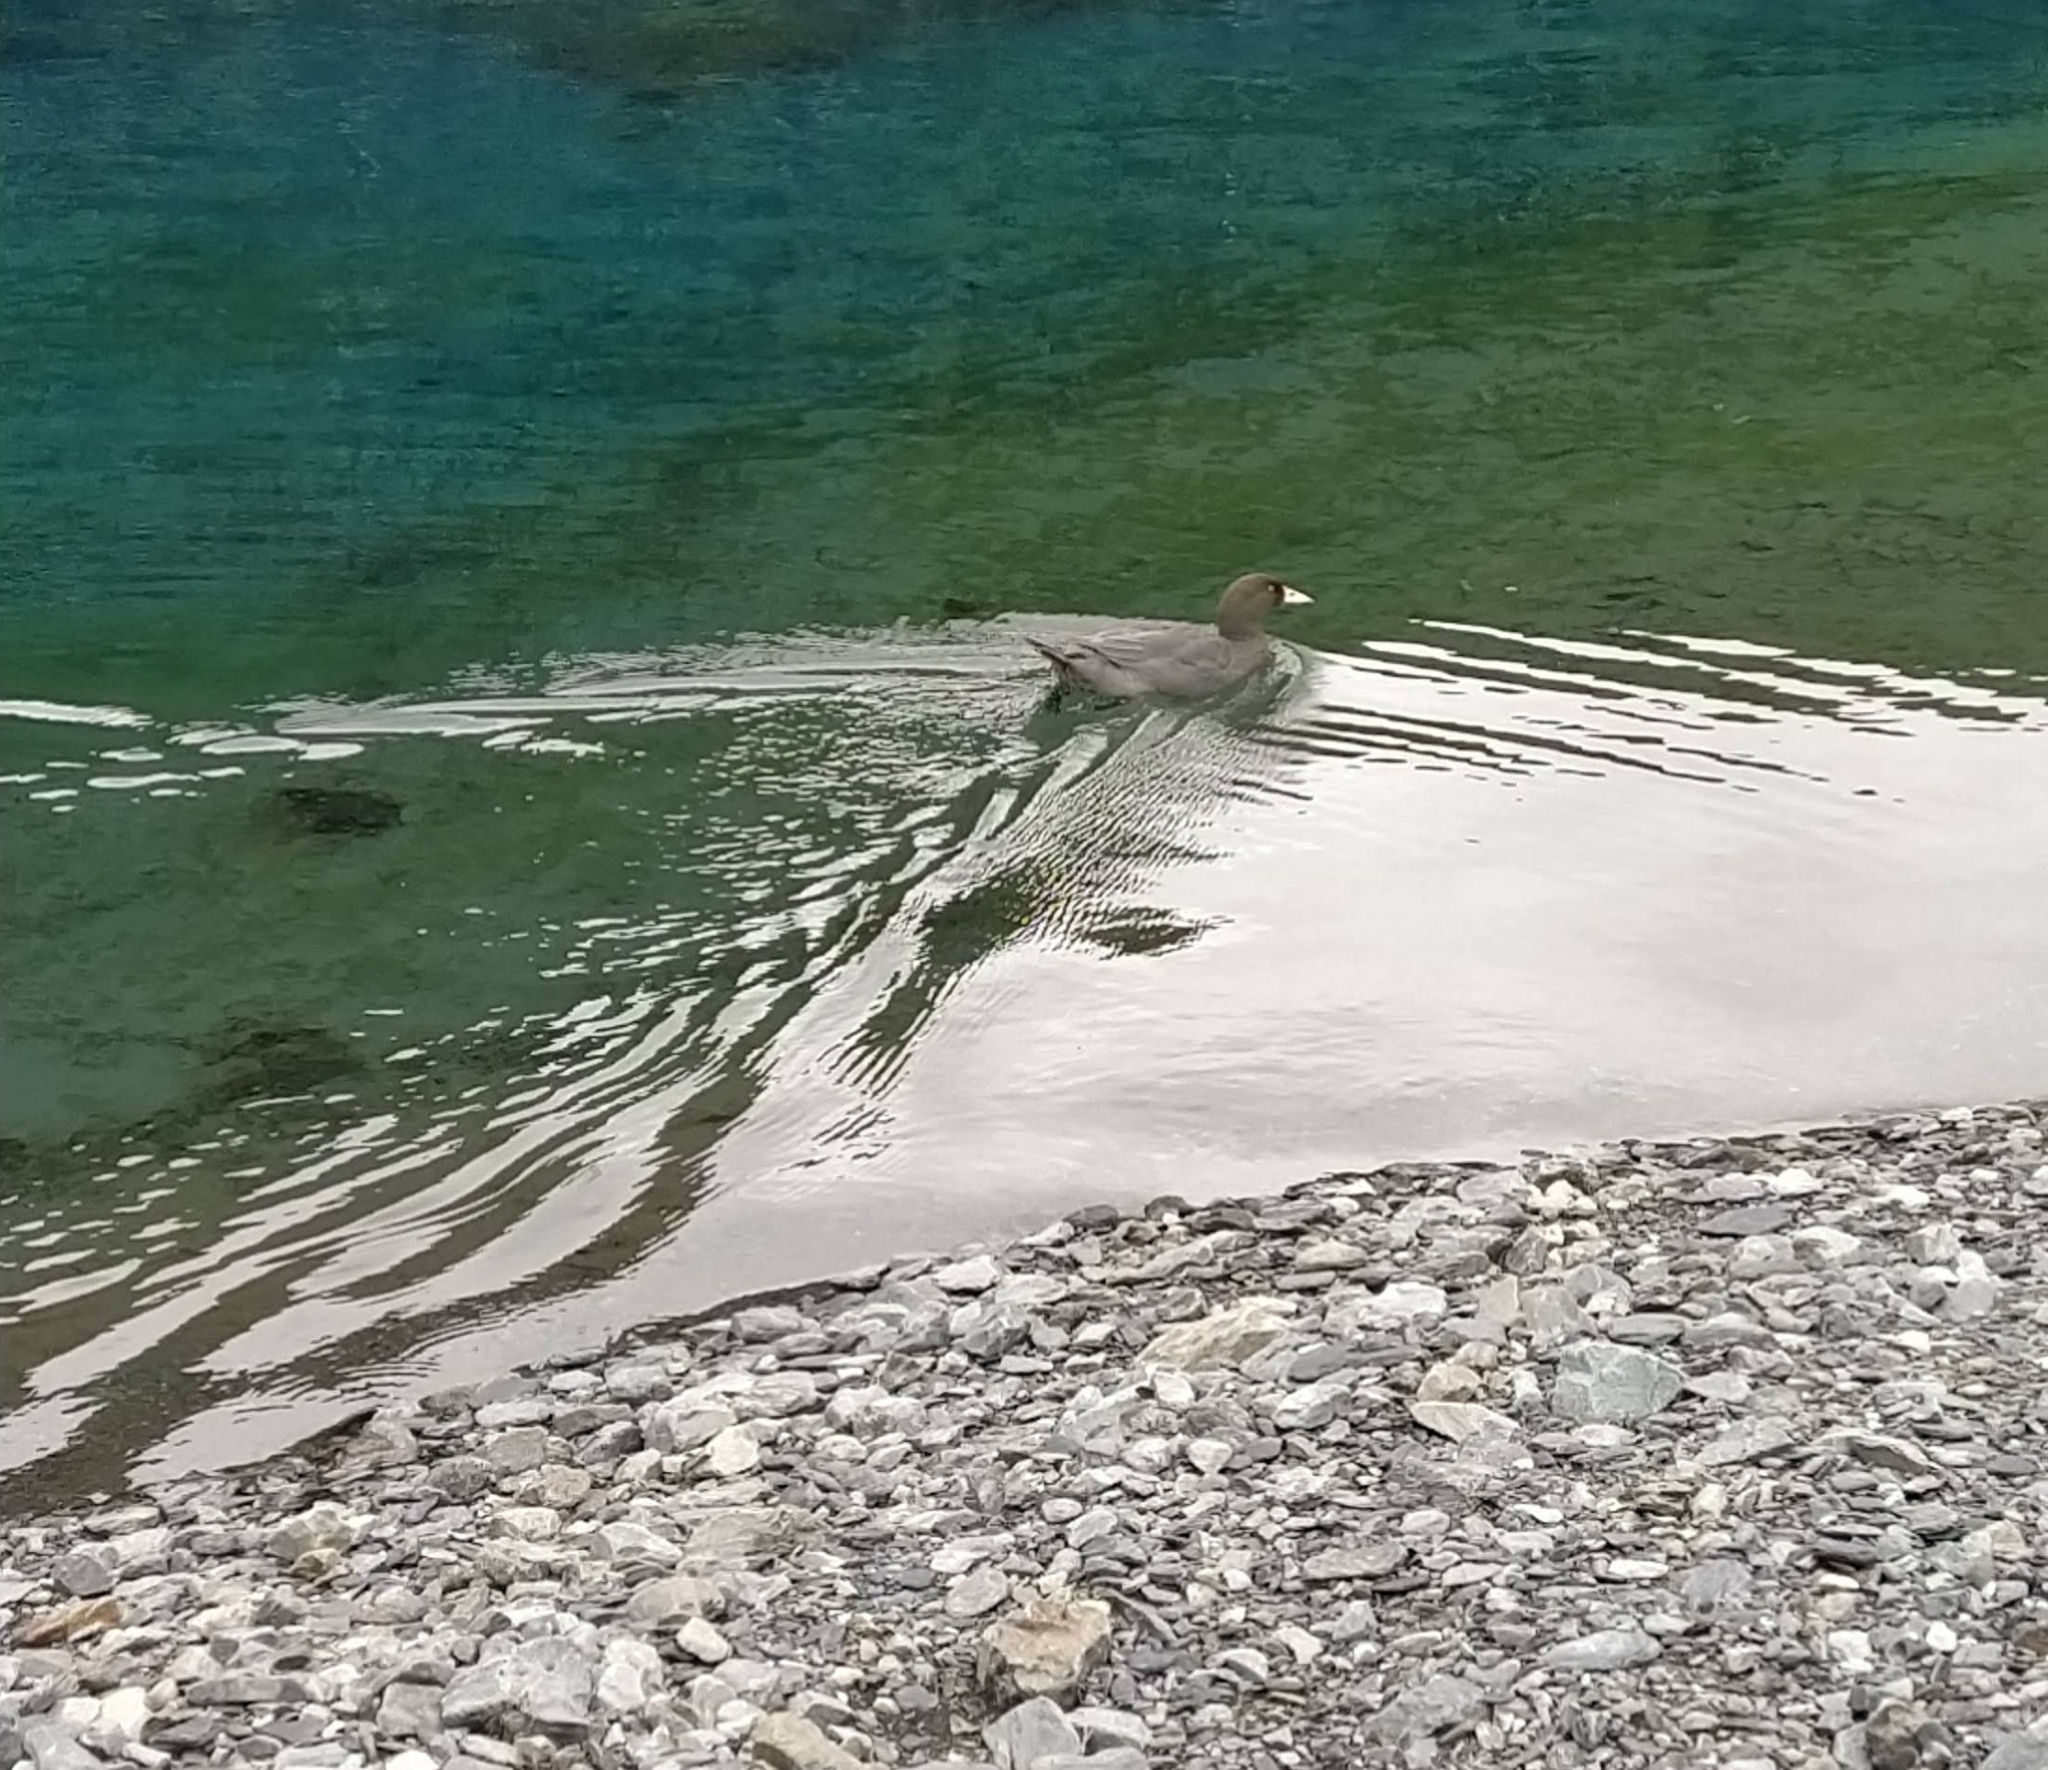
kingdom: Animalia
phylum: Chordata
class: Aves
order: Anseriformes
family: Anatidae
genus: Hymenolaimus
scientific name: Hymenolaimus malacorhynchos
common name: Blue duck
